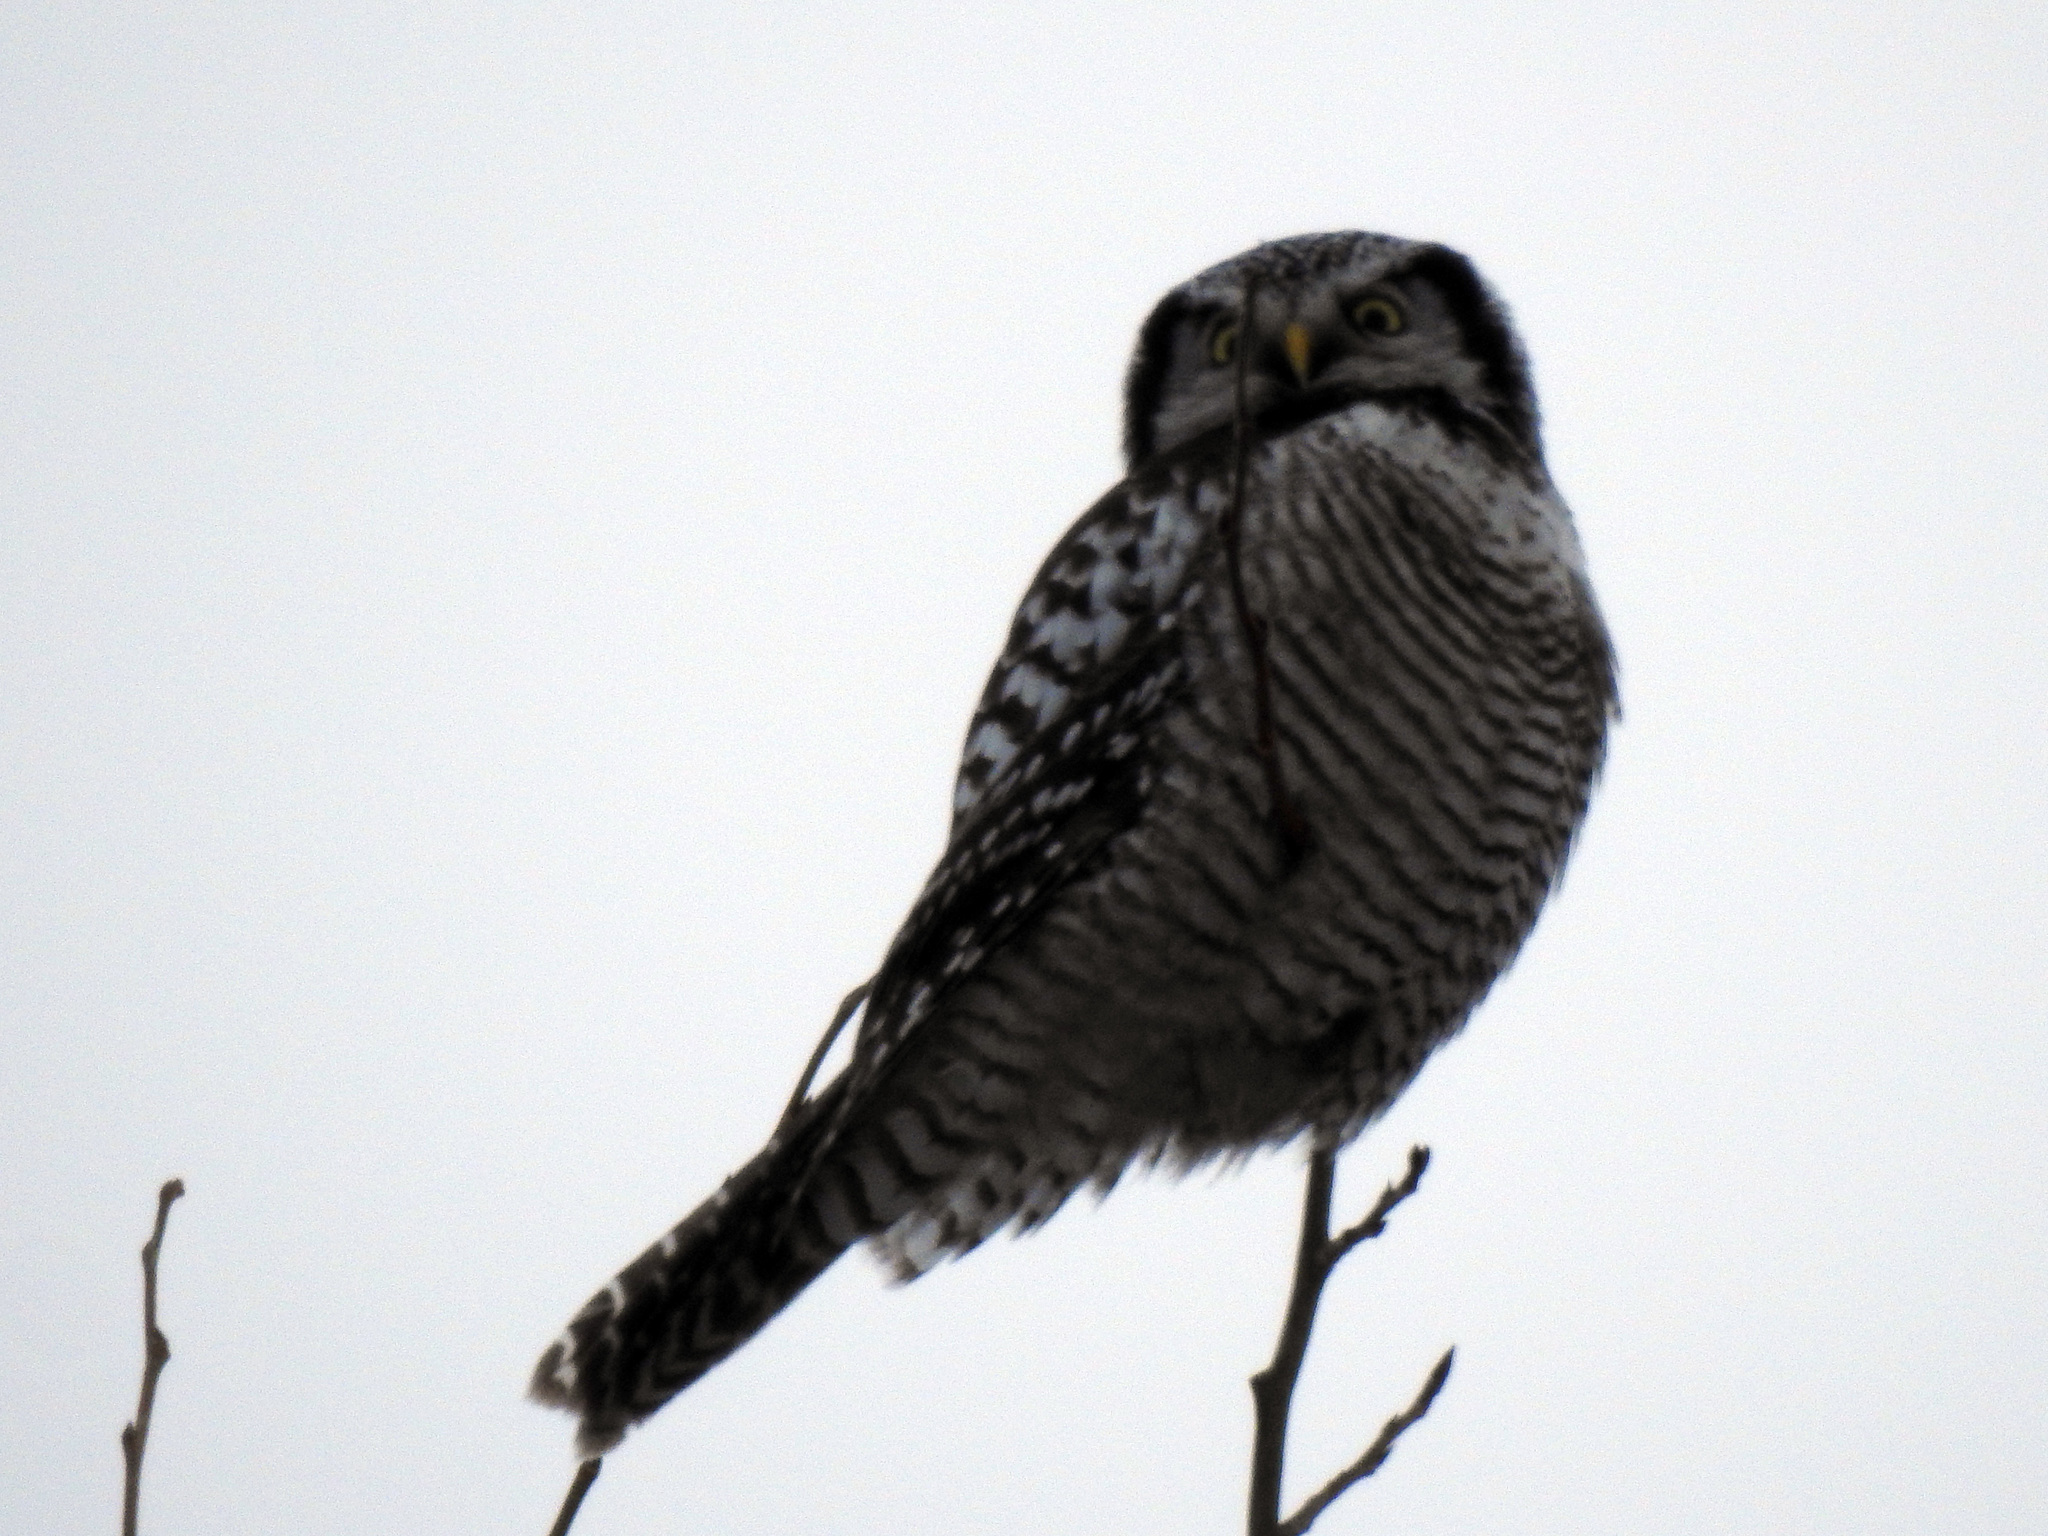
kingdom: Animalia
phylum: Chordata
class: Aves
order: Strigiformes
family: Strigidae
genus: Surnia
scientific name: Surnia ulula
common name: Northern hawk-owl
